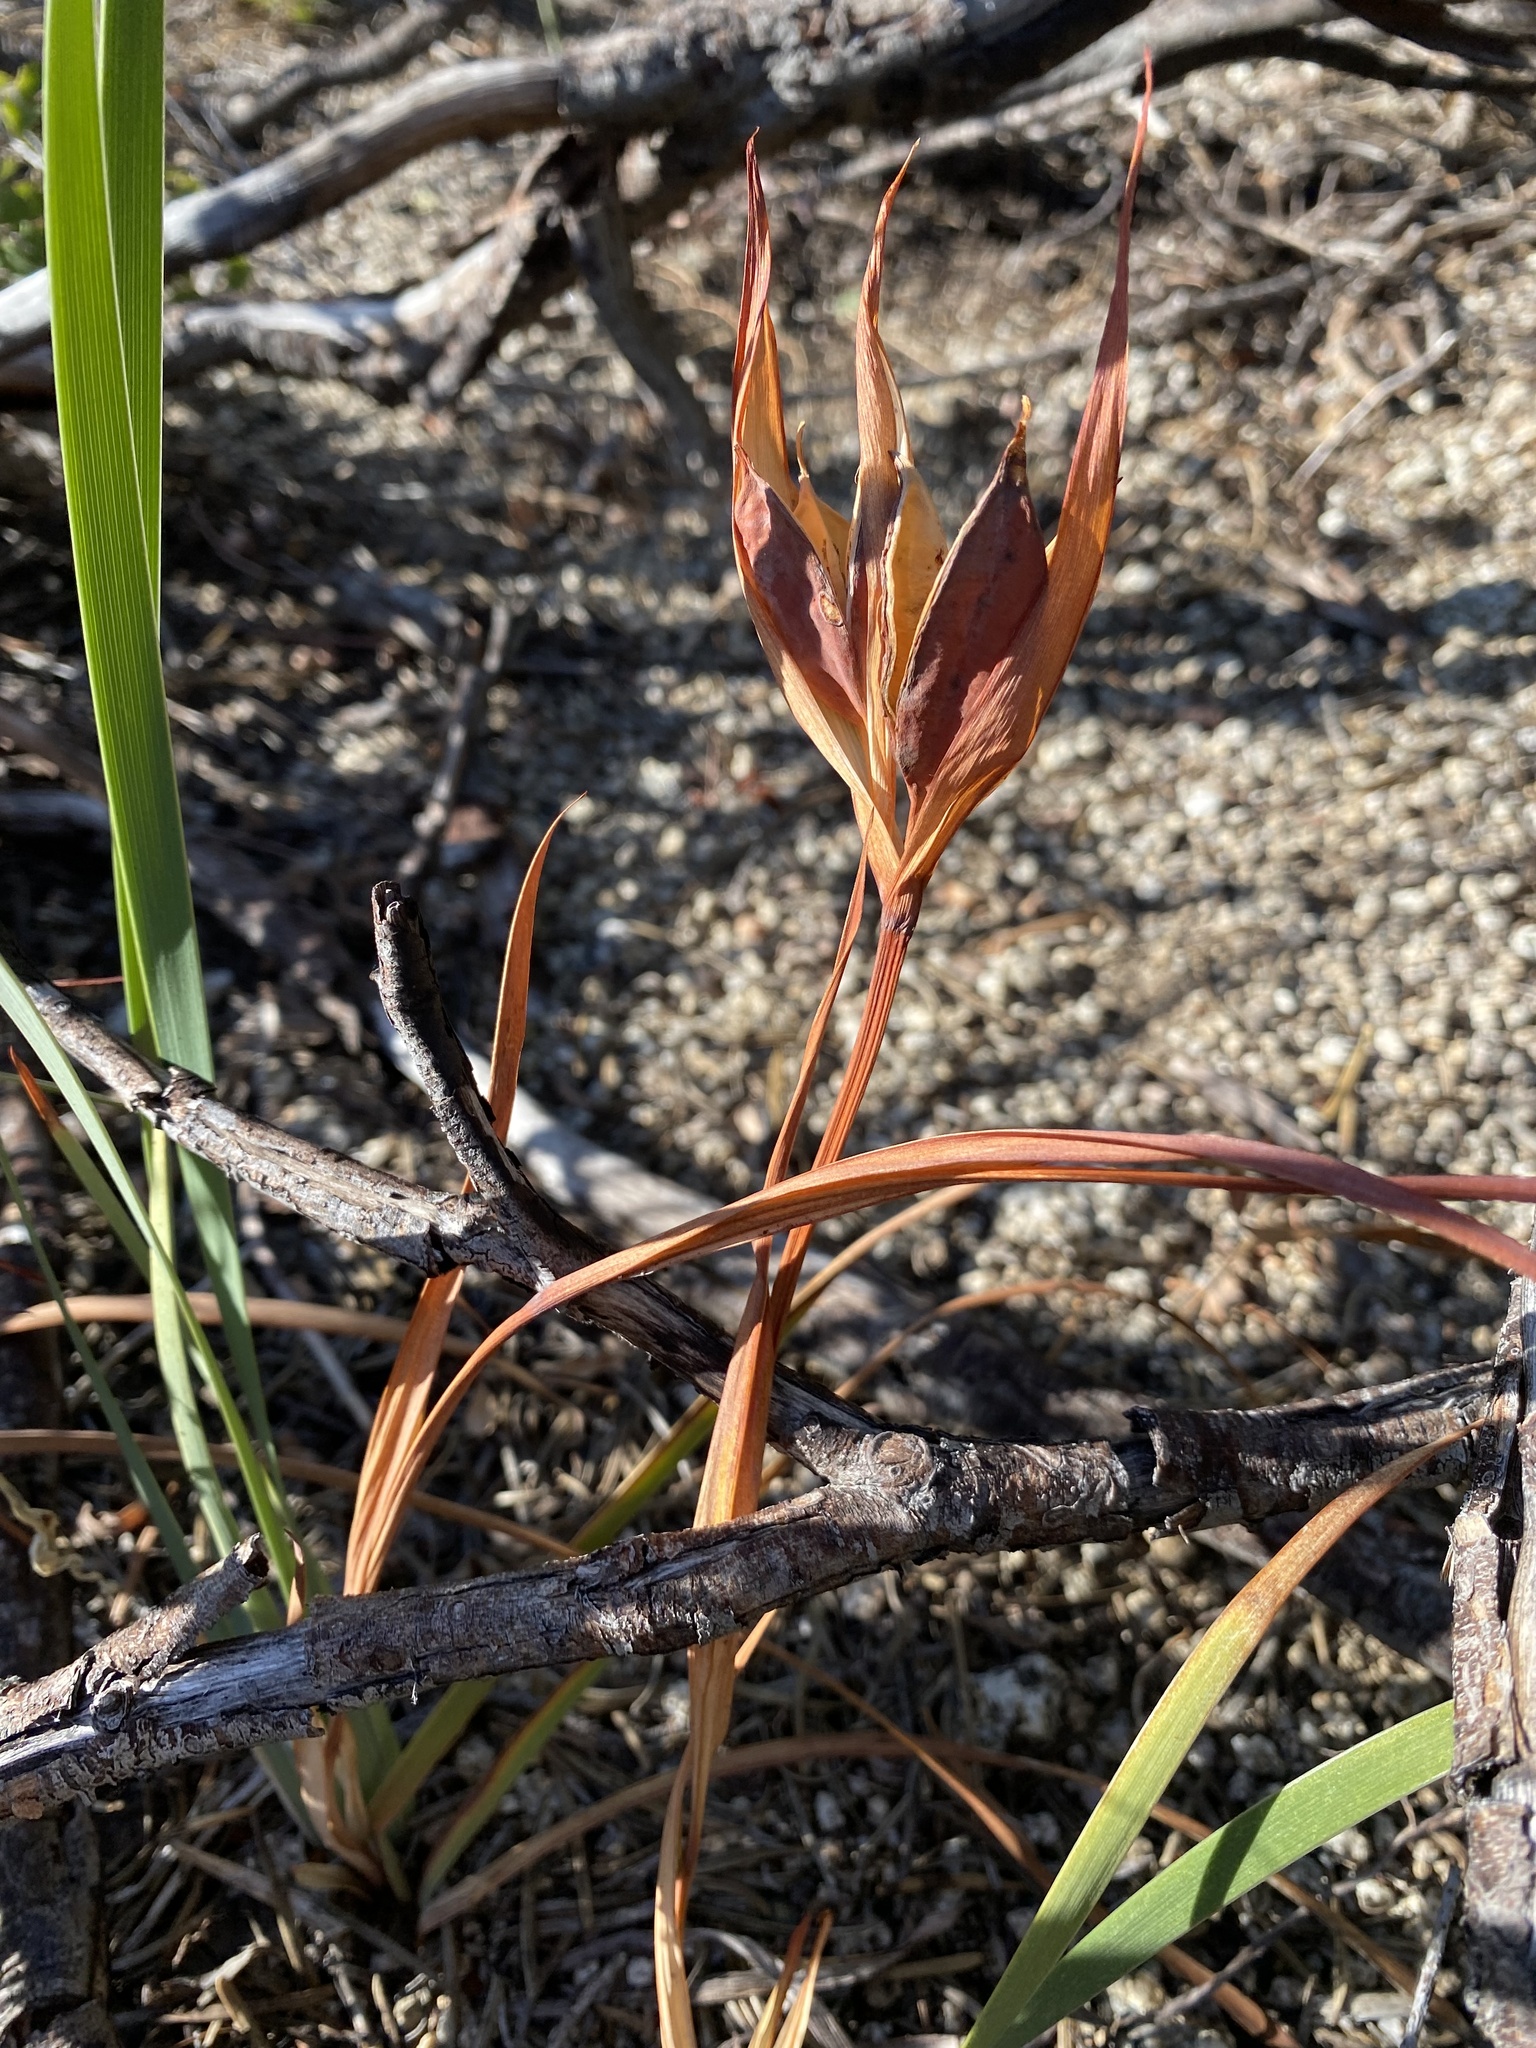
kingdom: Plantae
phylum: Tracheophyta
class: Liliopsida
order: Asparagales
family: Iridaceae
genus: Iris
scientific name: Iris tenuissima
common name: Long-tube iris
